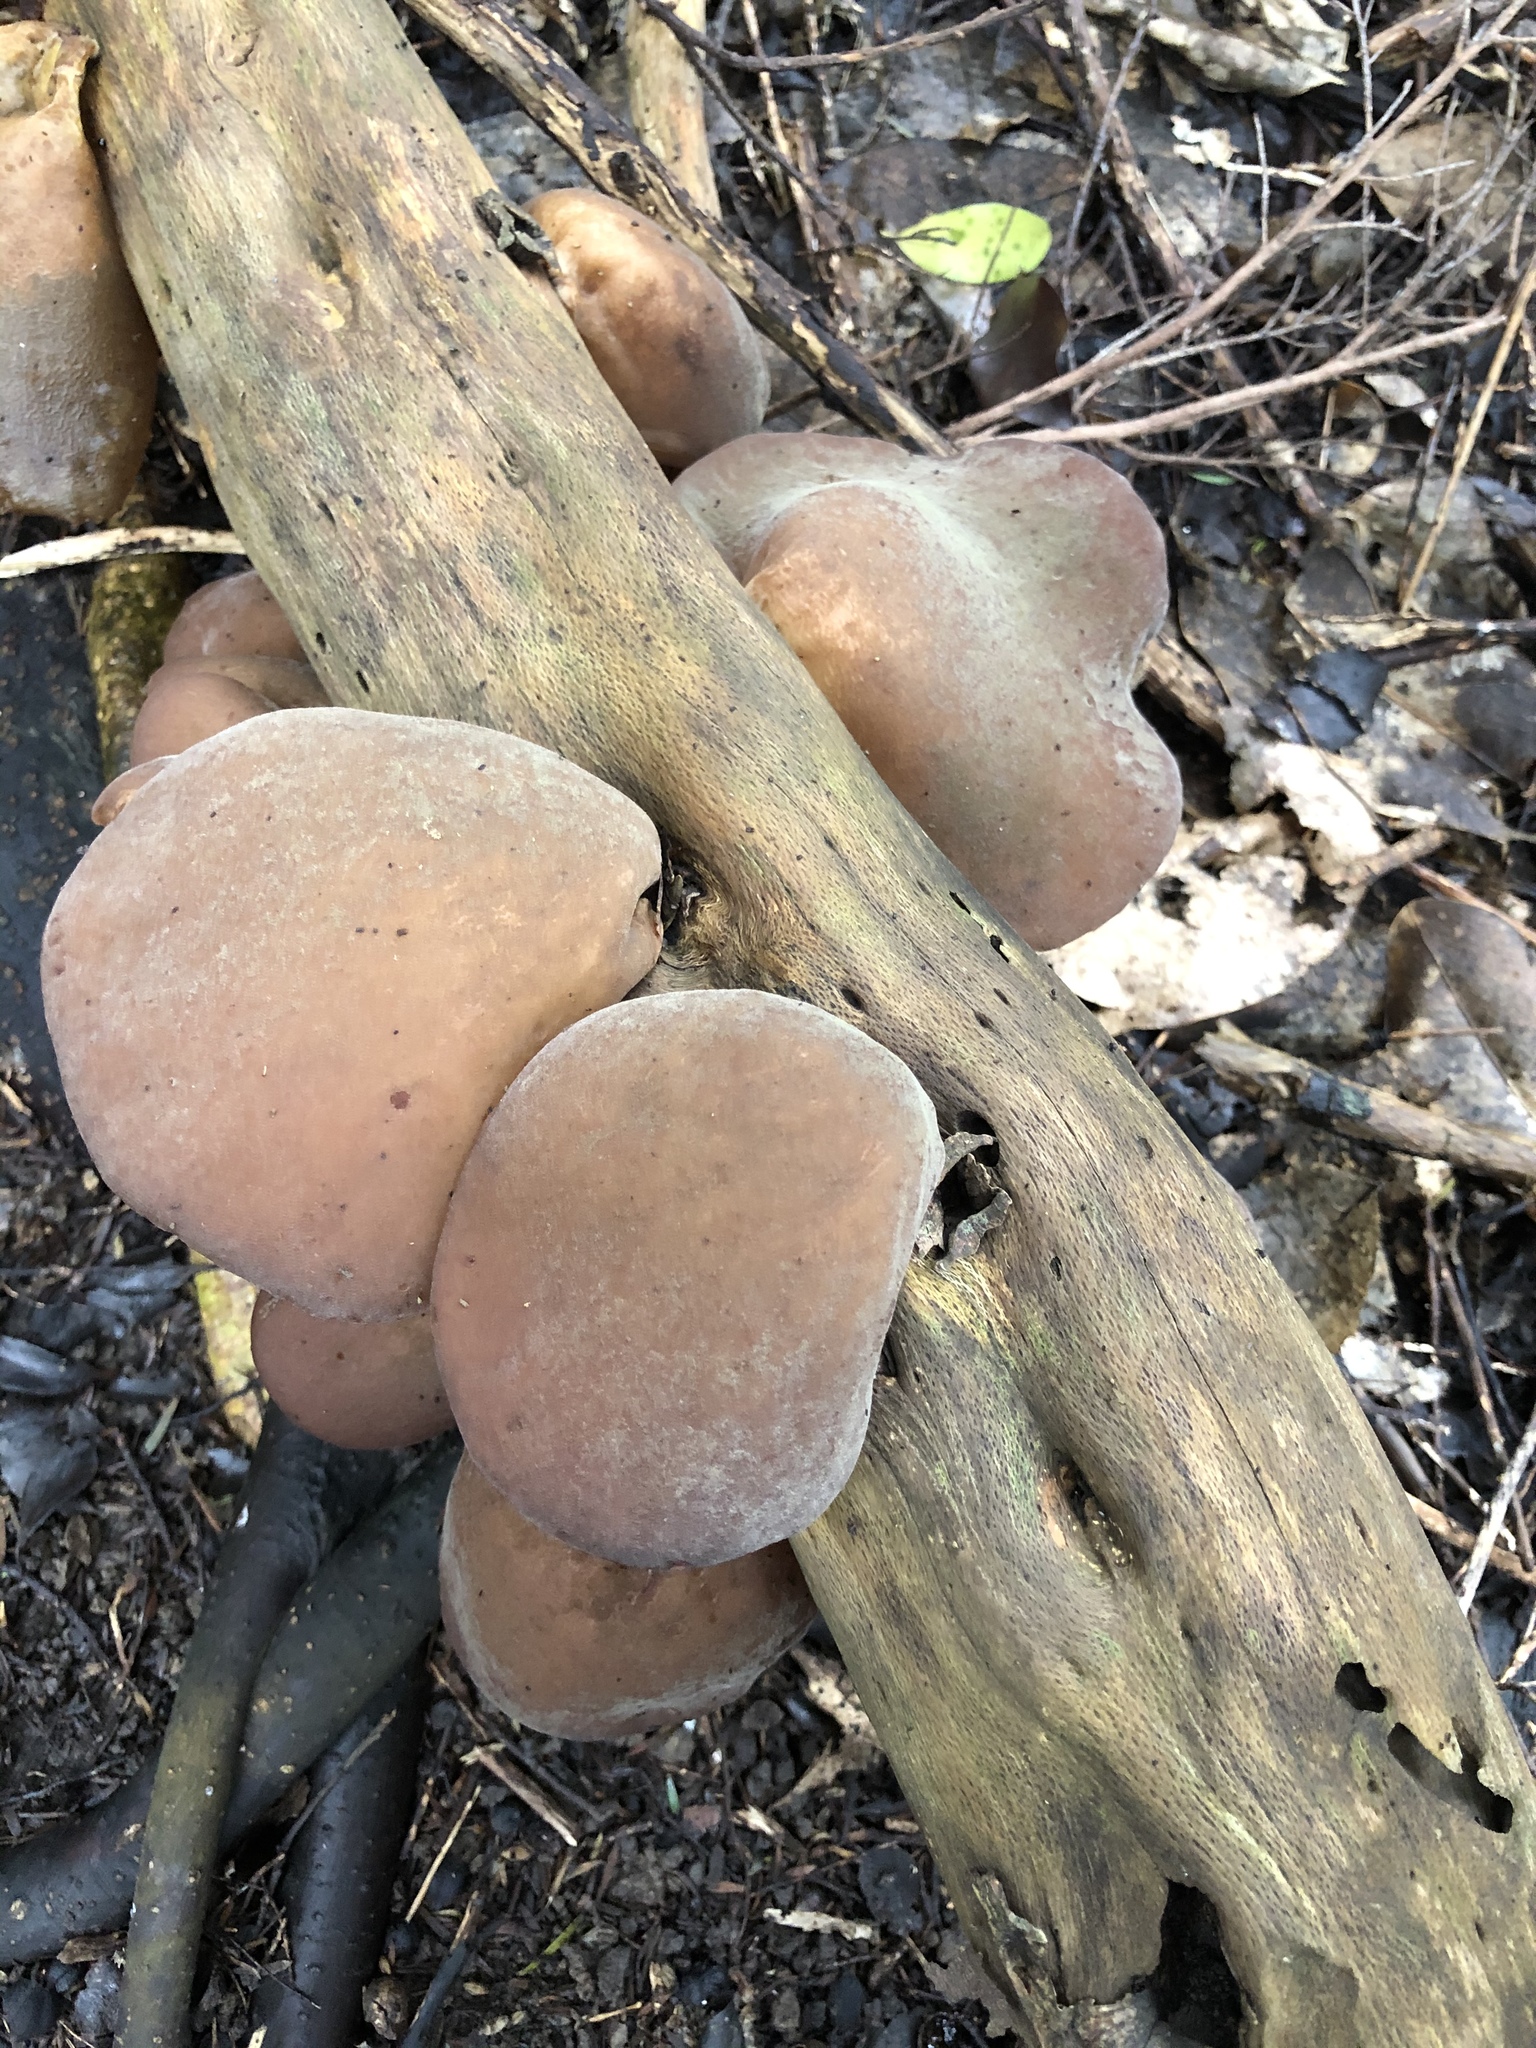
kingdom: Fungi
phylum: Basidiomycota
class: Agaricomycetes
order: Auriculariales
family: Auriculariaceae
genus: Auricularia
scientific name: Auricularia cornea
